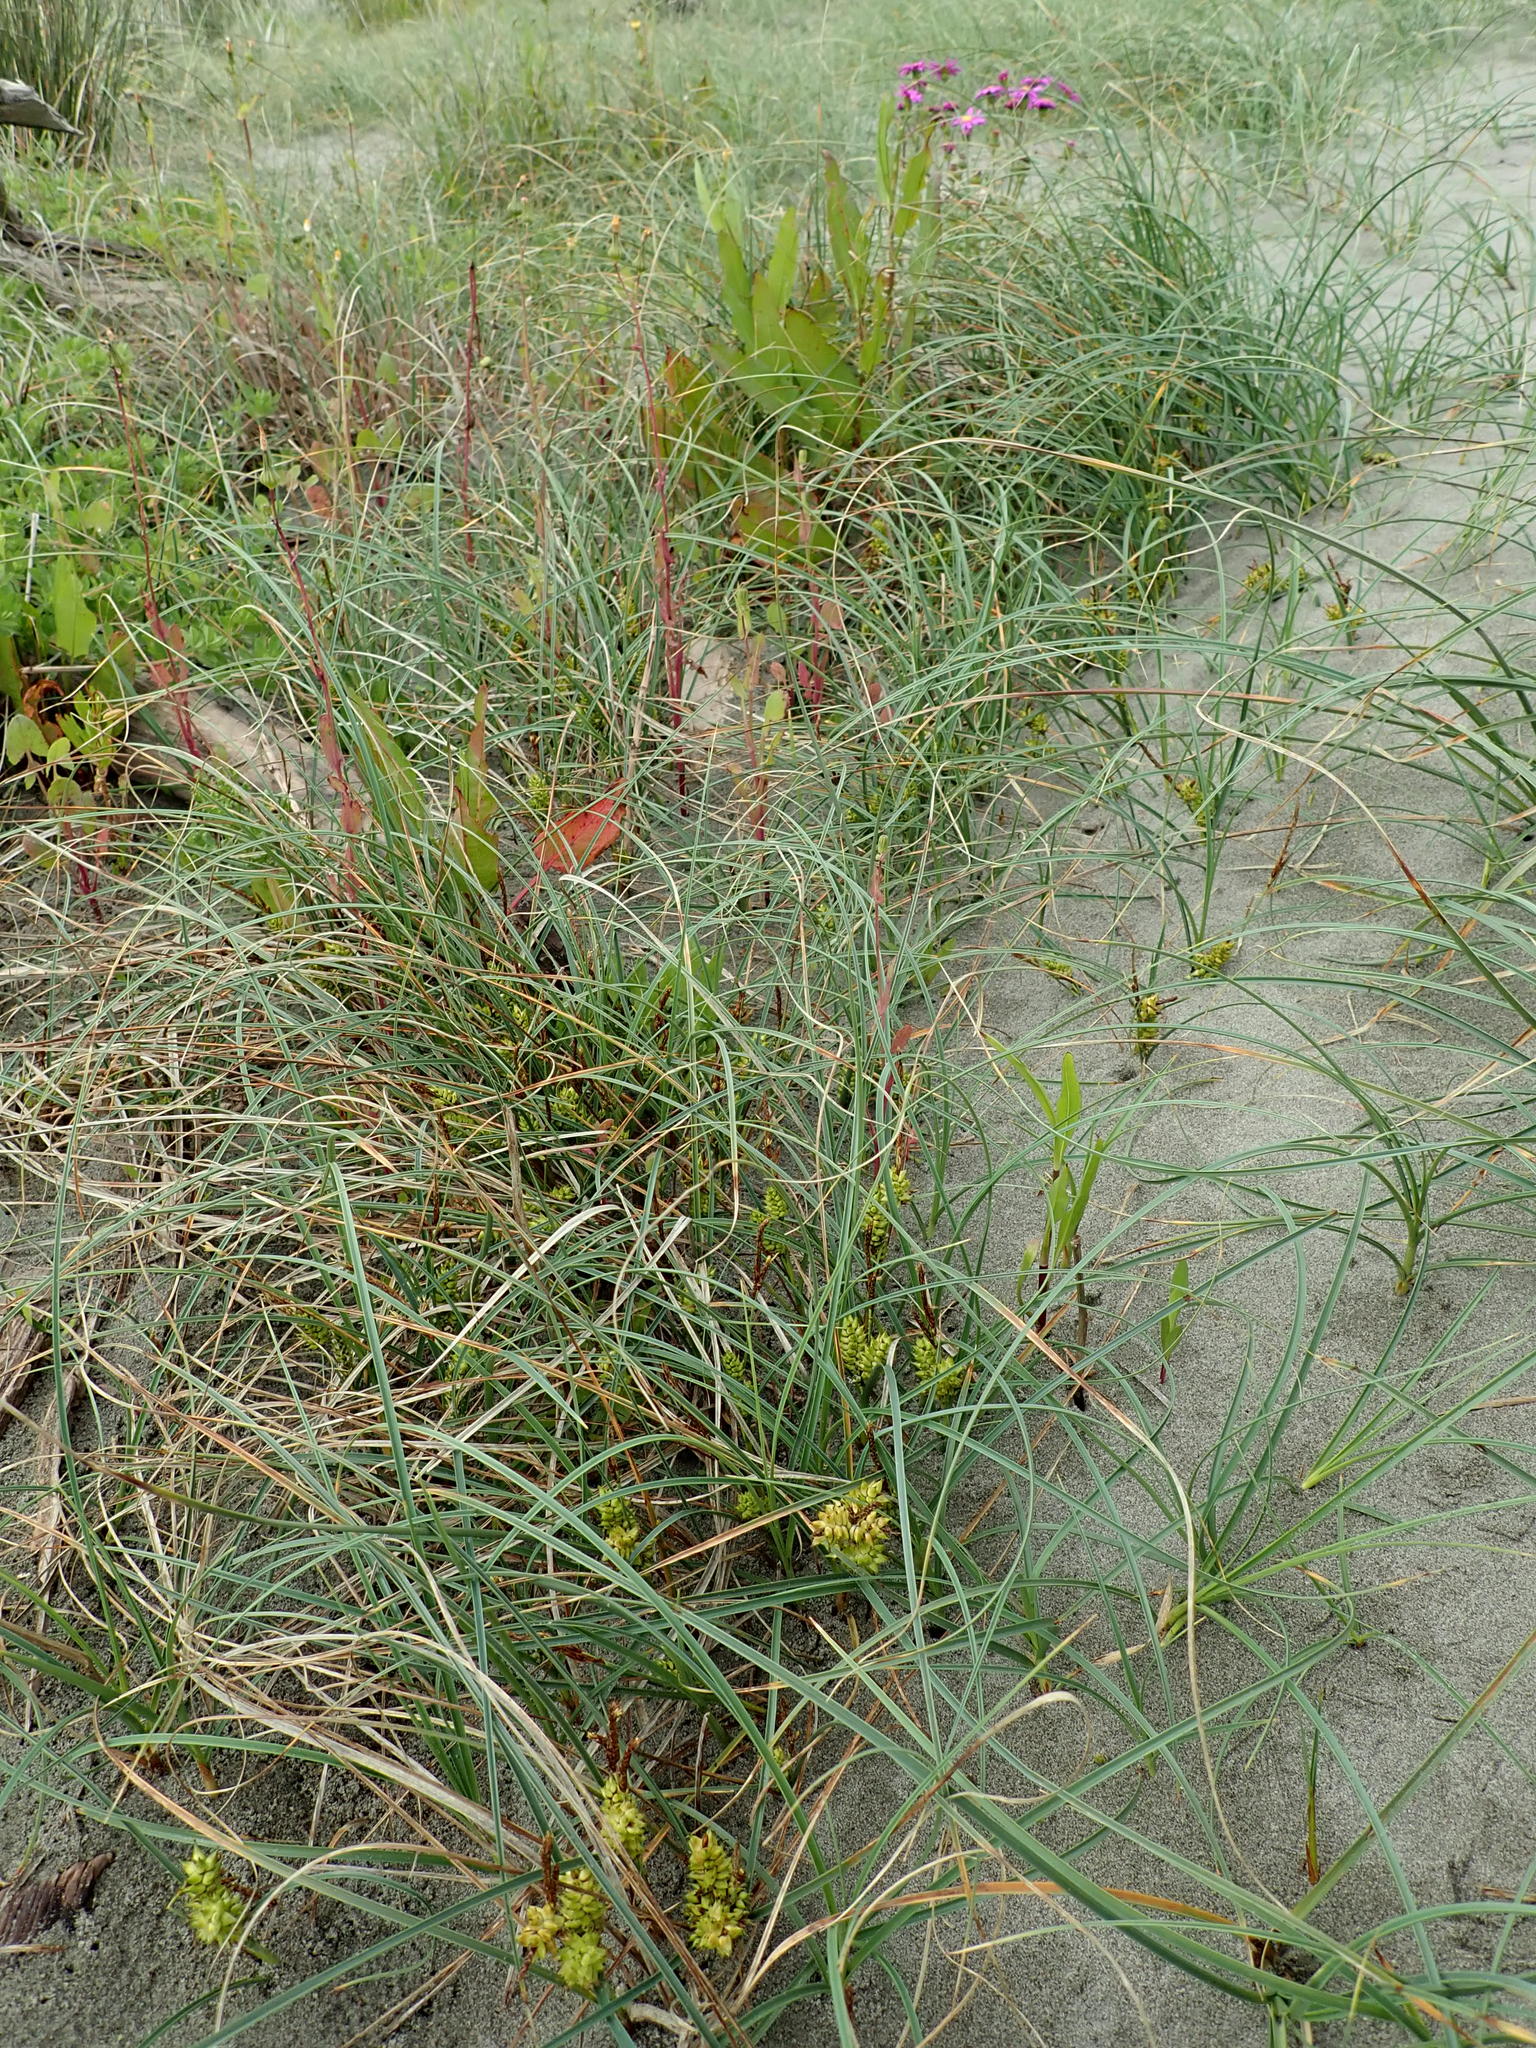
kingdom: Plantae
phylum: Tracheophyta
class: Liliopsida
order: Poales
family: Cyperaceae
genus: Carex
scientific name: Carex pumila
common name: Dwarf sedge
